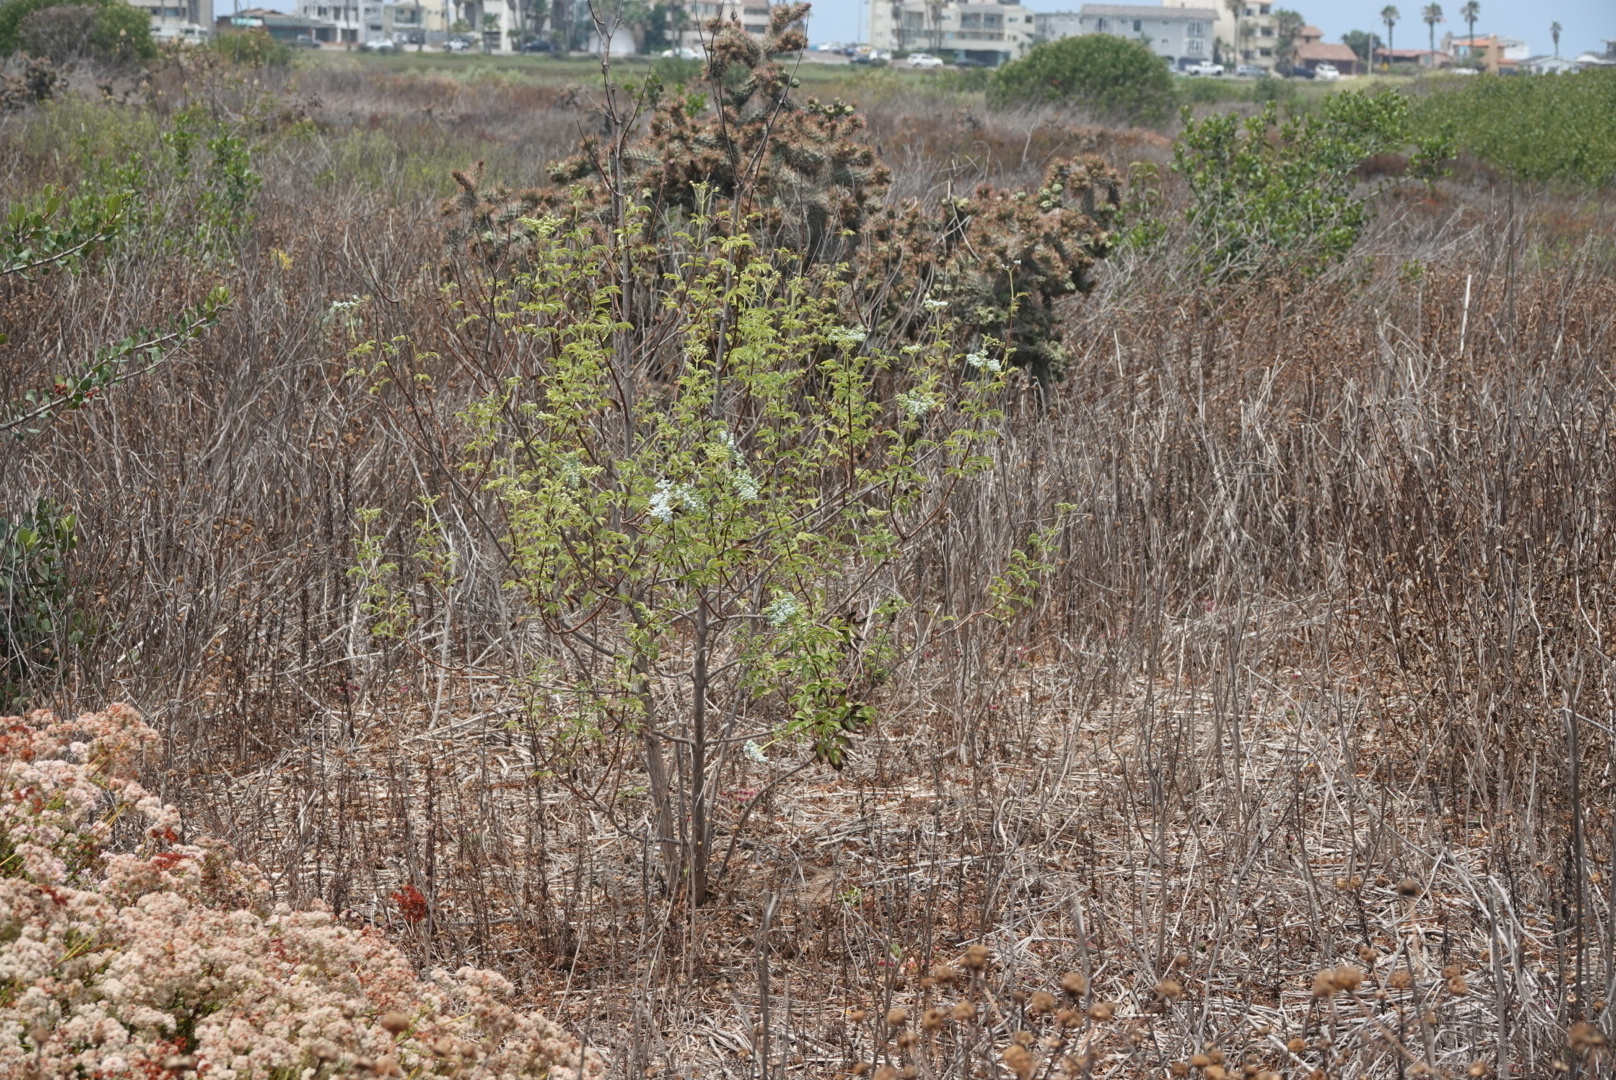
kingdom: Plantae
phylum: Tracheophyta
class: Magnoliopsida
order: Dipsacales
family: Viburnaceae
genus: Sambucus
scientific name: Sambucus cerulea
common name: Blue elder
